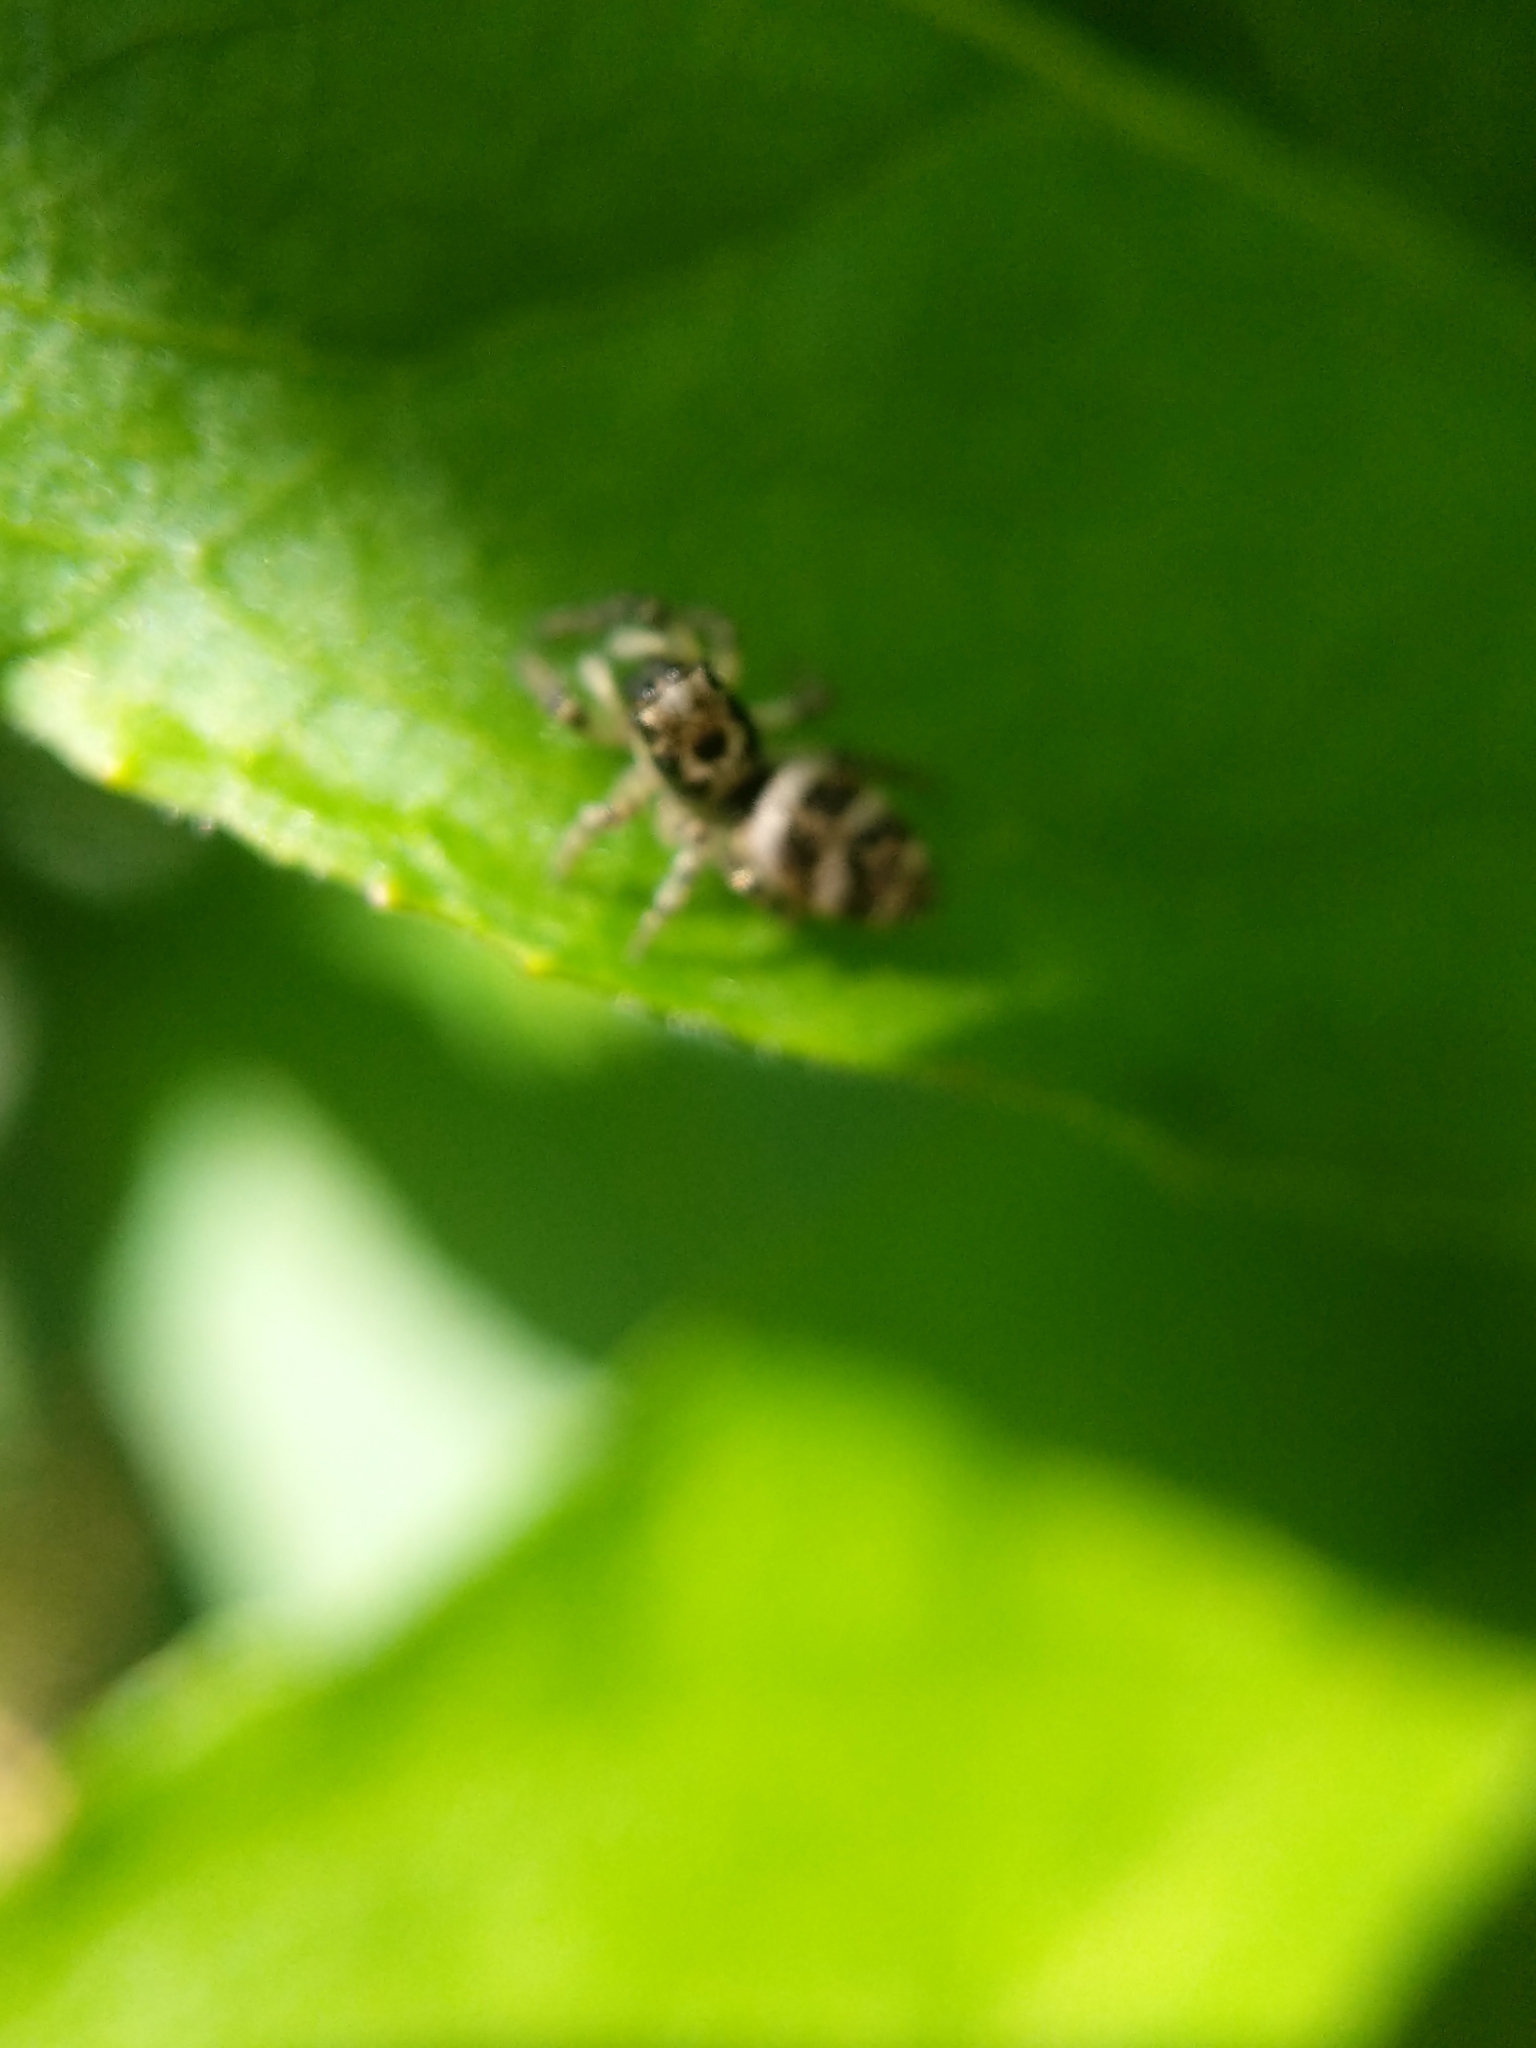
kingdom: Animalia
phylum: Arthropoda
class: Arachnida
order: Araneae
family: Salticidae
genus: Salticus
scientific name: Salticus scenicus
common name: Zebra jumper
